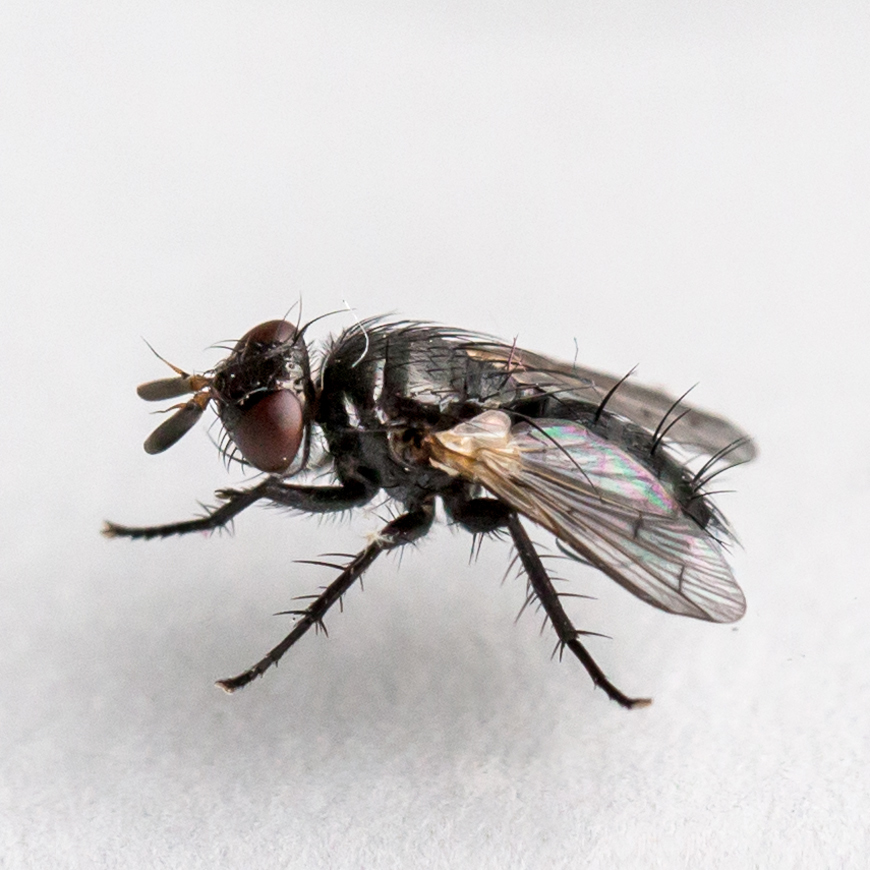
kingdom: Animalia
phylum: Arthropoda
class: Insecta
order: Diptera
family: Tachinidae
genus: Wagneria
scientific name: Wagneria vernata
